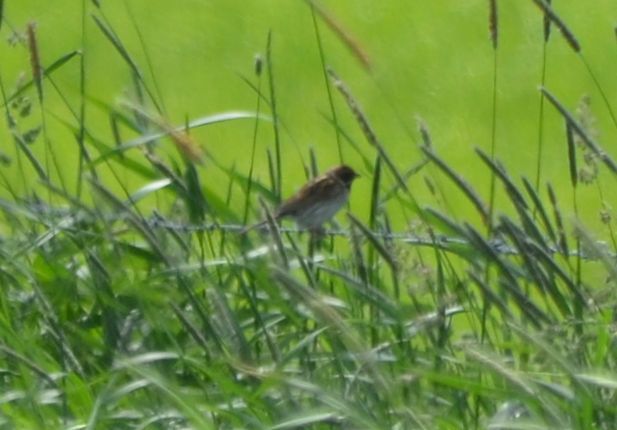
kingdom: Animalia
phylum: Chordata
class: Aves
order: Passeriformes
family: Emberizidae
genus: Emberiza
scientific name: Emberiza schoeniclus
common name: Reed bunting
